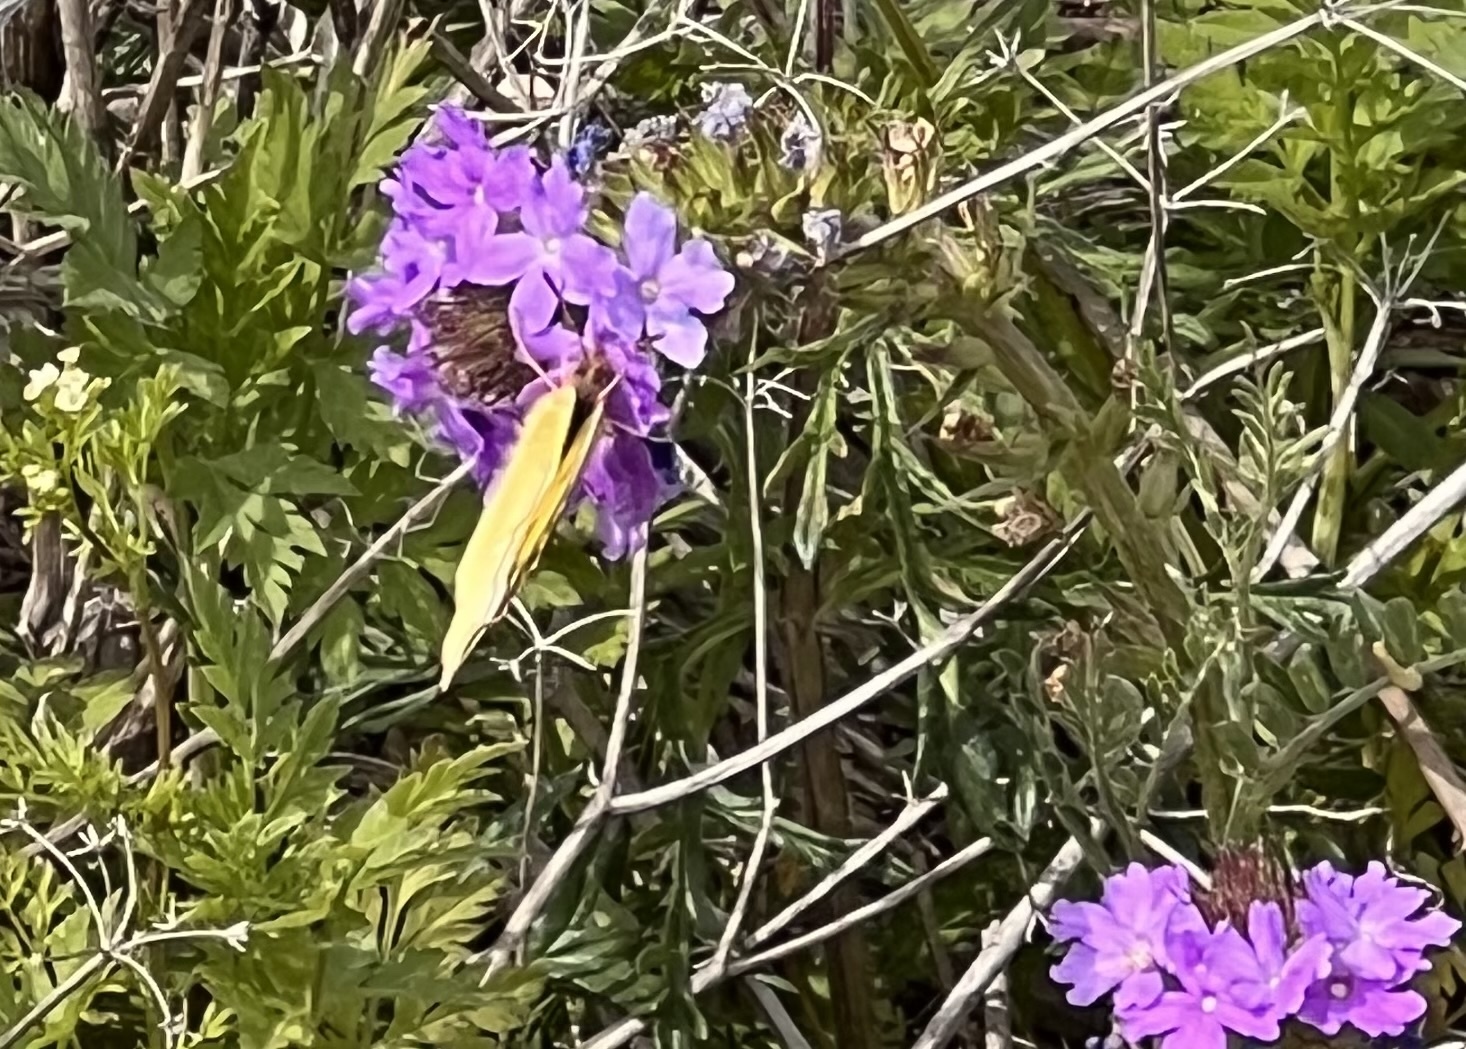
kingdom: Animalia
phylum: Arthropoda
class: Insecta
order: Lepidoptera
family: Pieridae
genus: Colias
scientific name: Colias eurytheme
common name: Alfalfa butterfly
